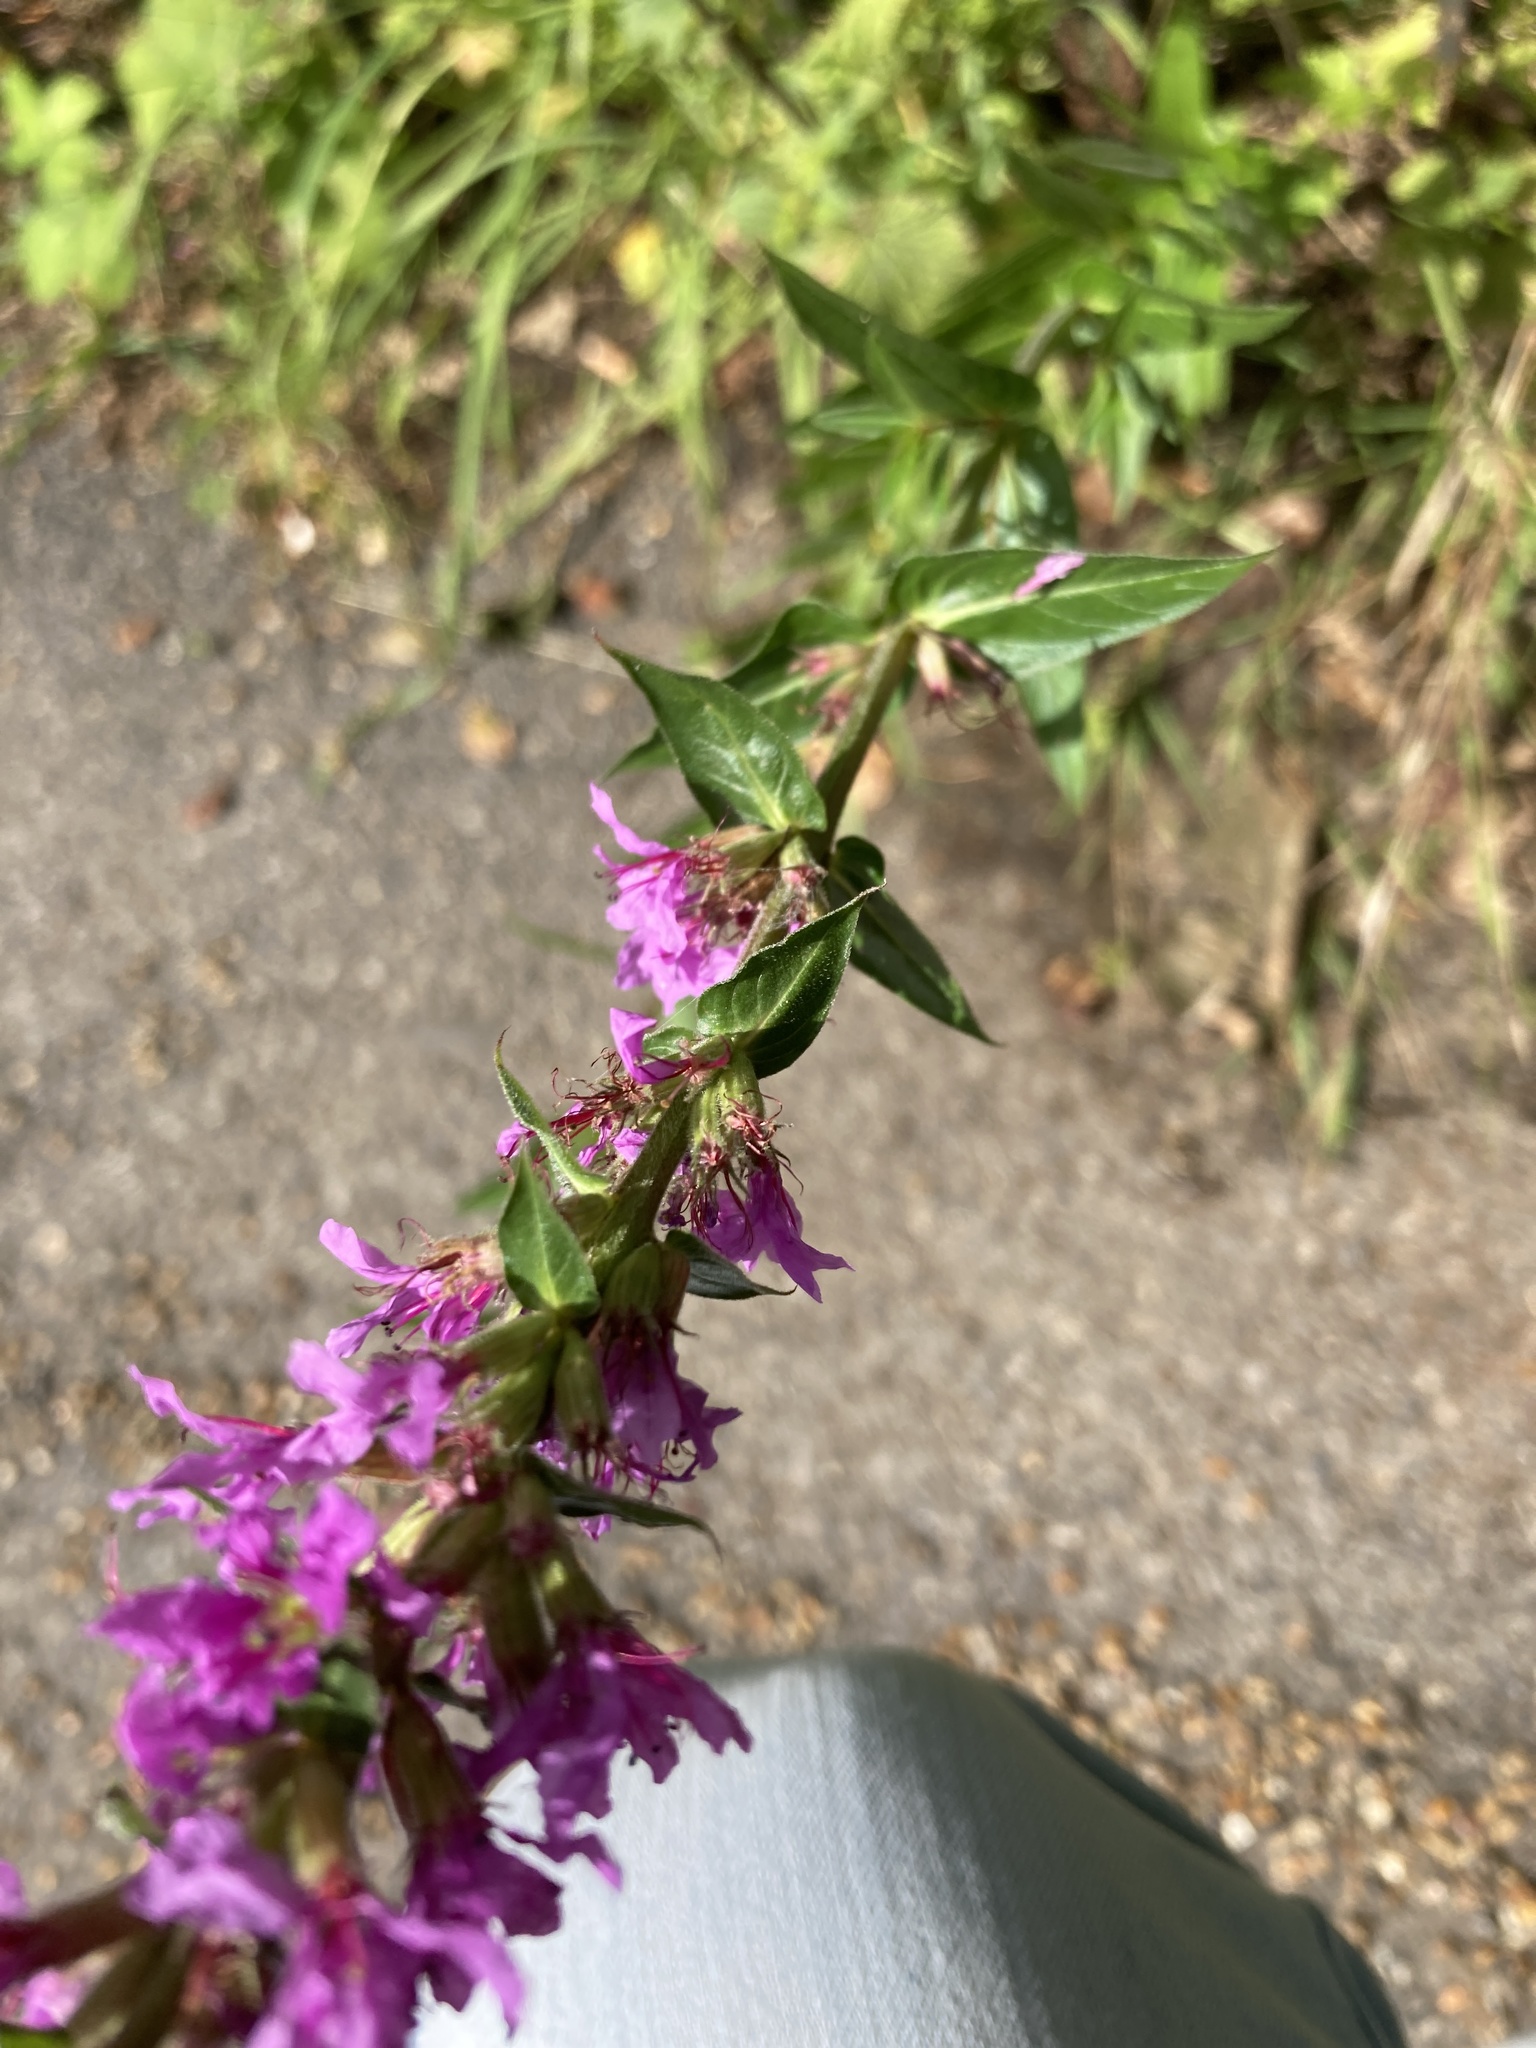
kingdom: Plantae
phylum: Tracheophyta
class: Magnoliopsida
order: Myrtales
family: Lythraceae
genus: Lythrum
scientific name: Lythrum salicaria
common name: Purple loosestrife
